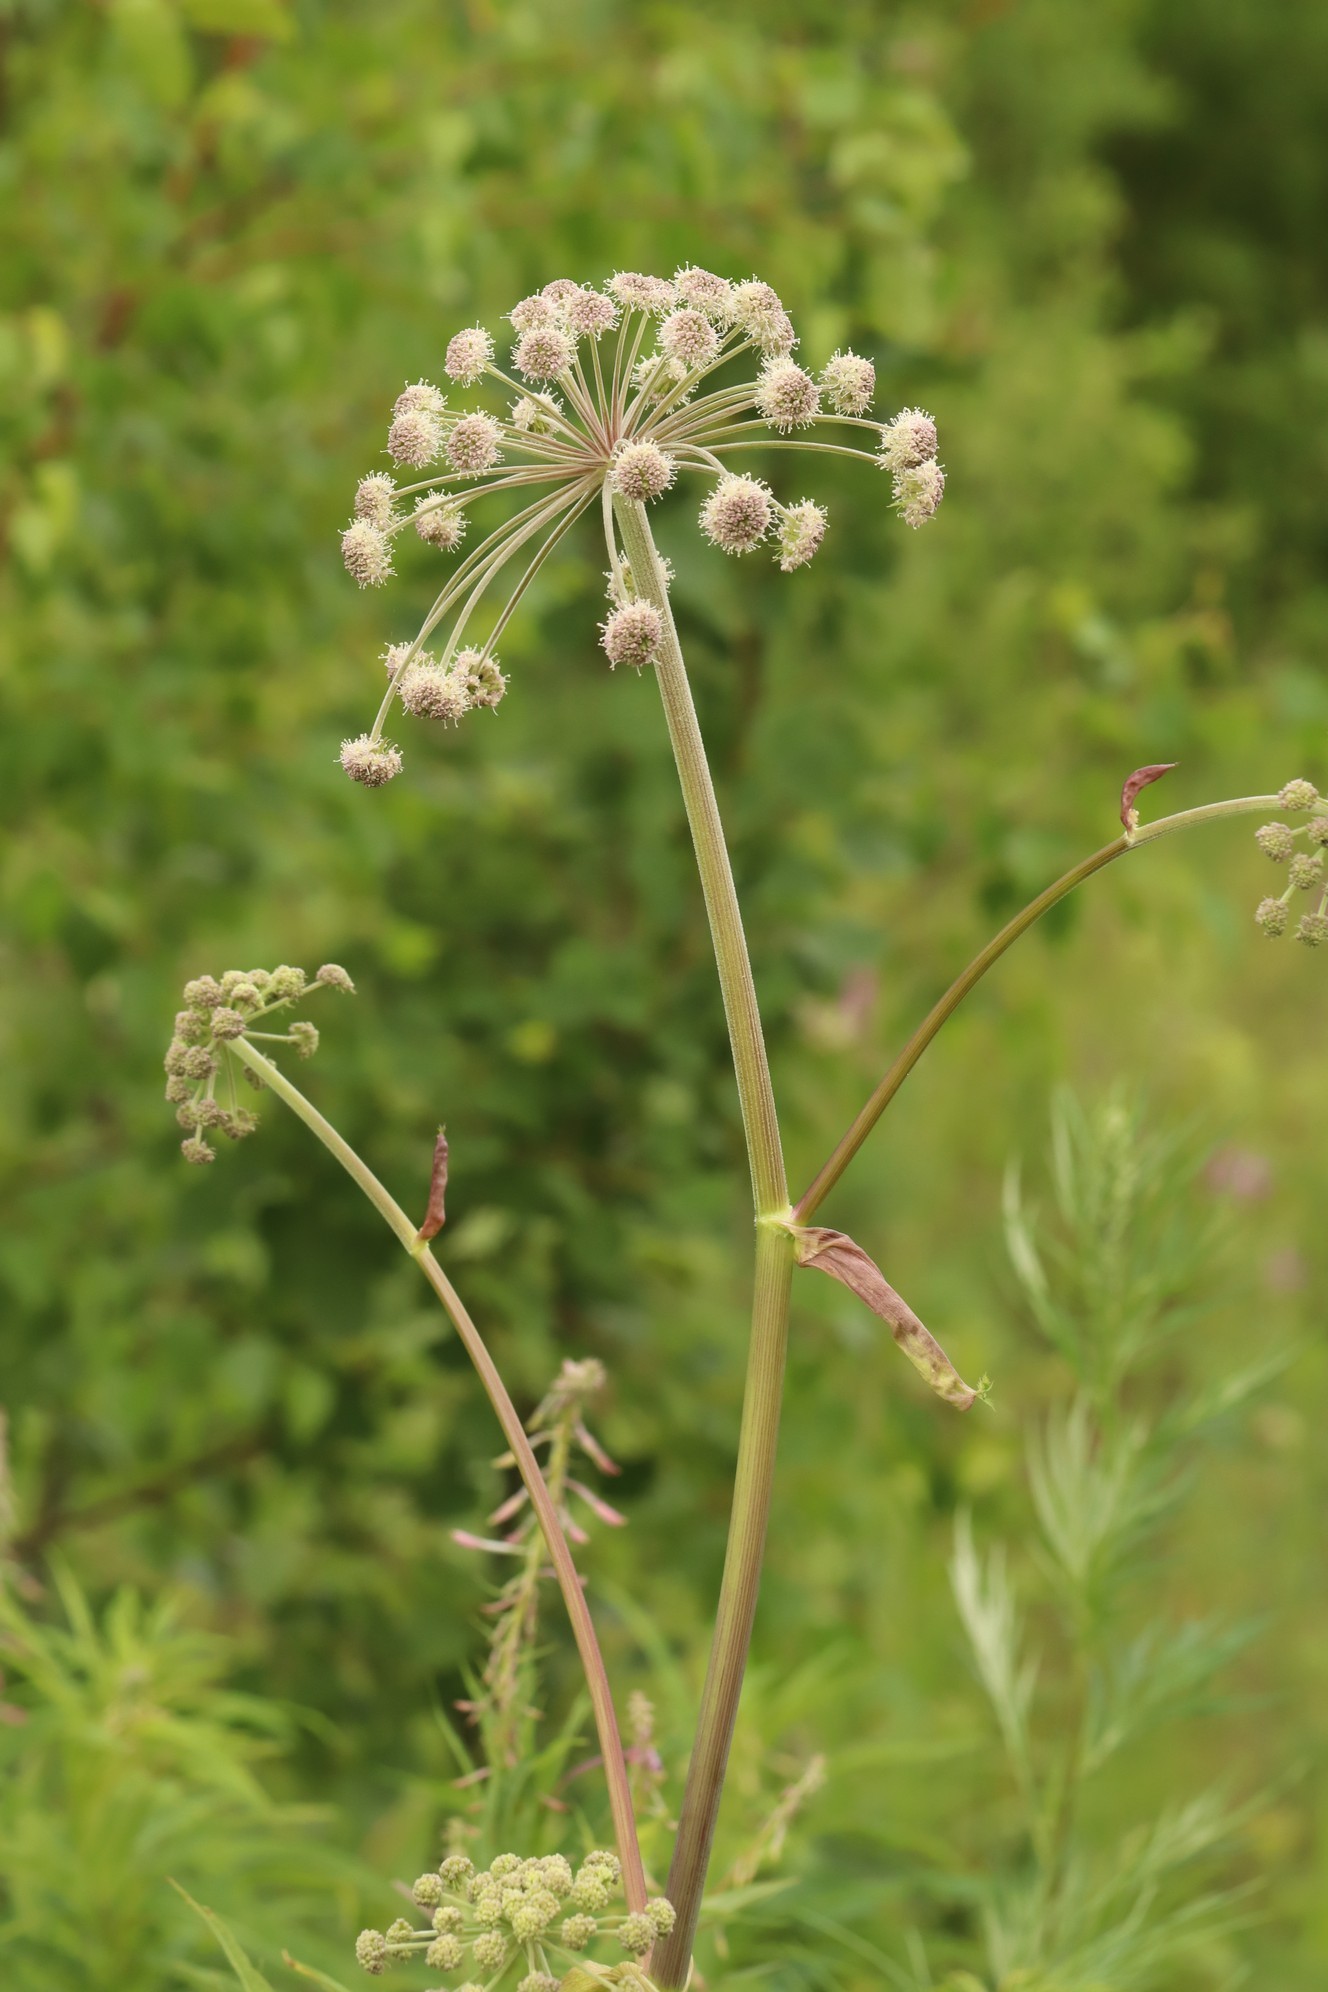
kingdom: Plantae
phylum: Tracheophyta
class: Magnoliopsida
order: Apiales
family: Apiaceae
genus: Angelica
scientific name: Angelica sylvestris
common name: Wild angelica
